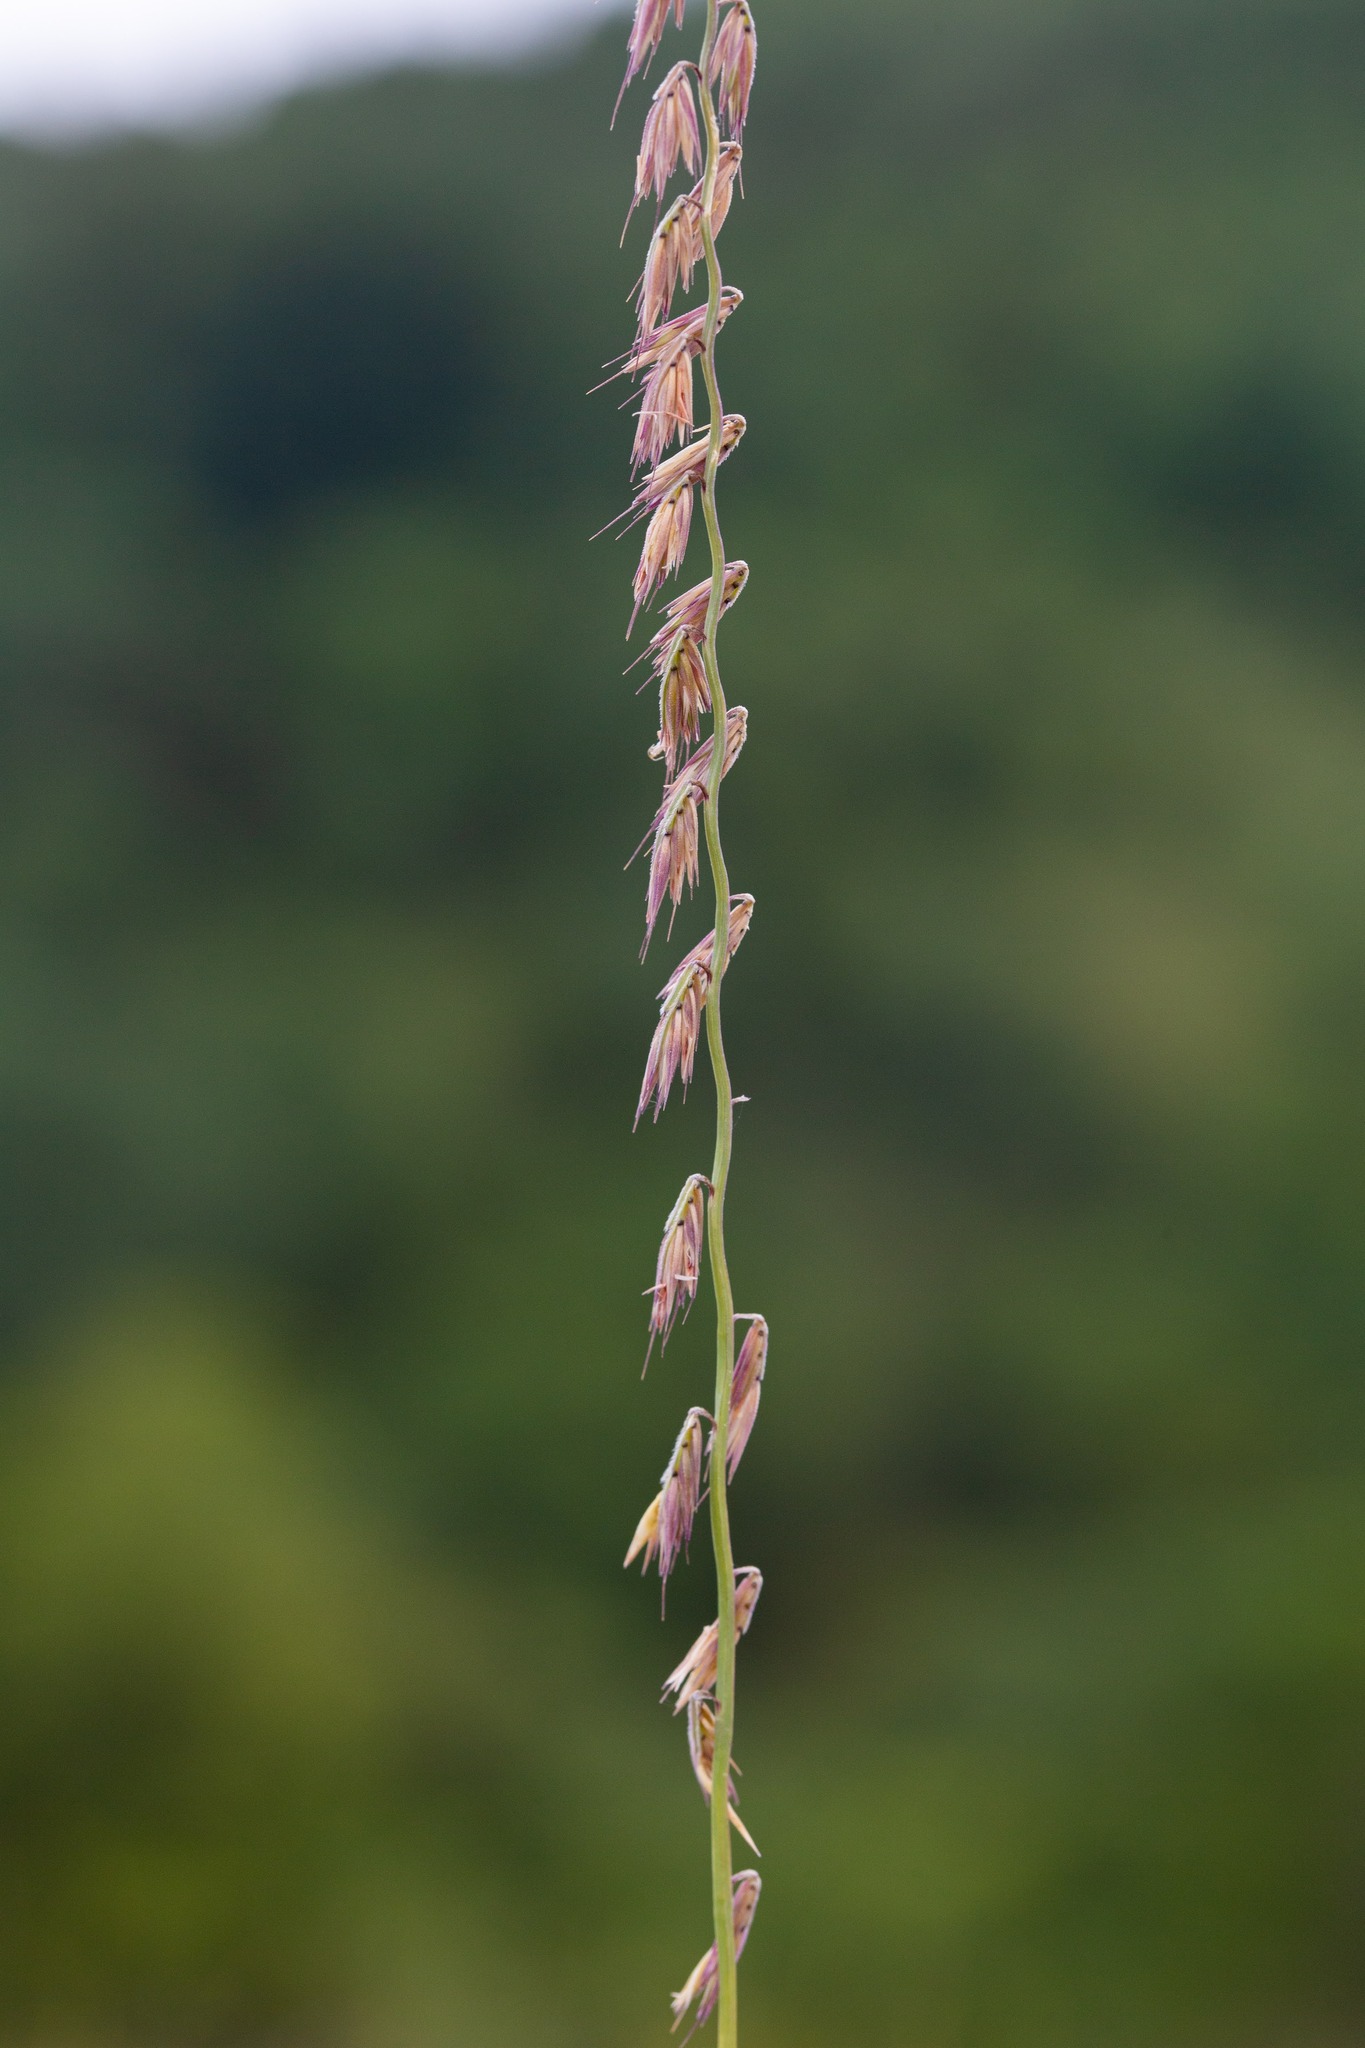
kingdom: Plantae
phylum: Tracheophyta
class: Liliopsida
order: Poales
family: Poaceae
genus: Bouteloua
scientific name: Bouteloua curtipendula
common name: Side-oats grama
